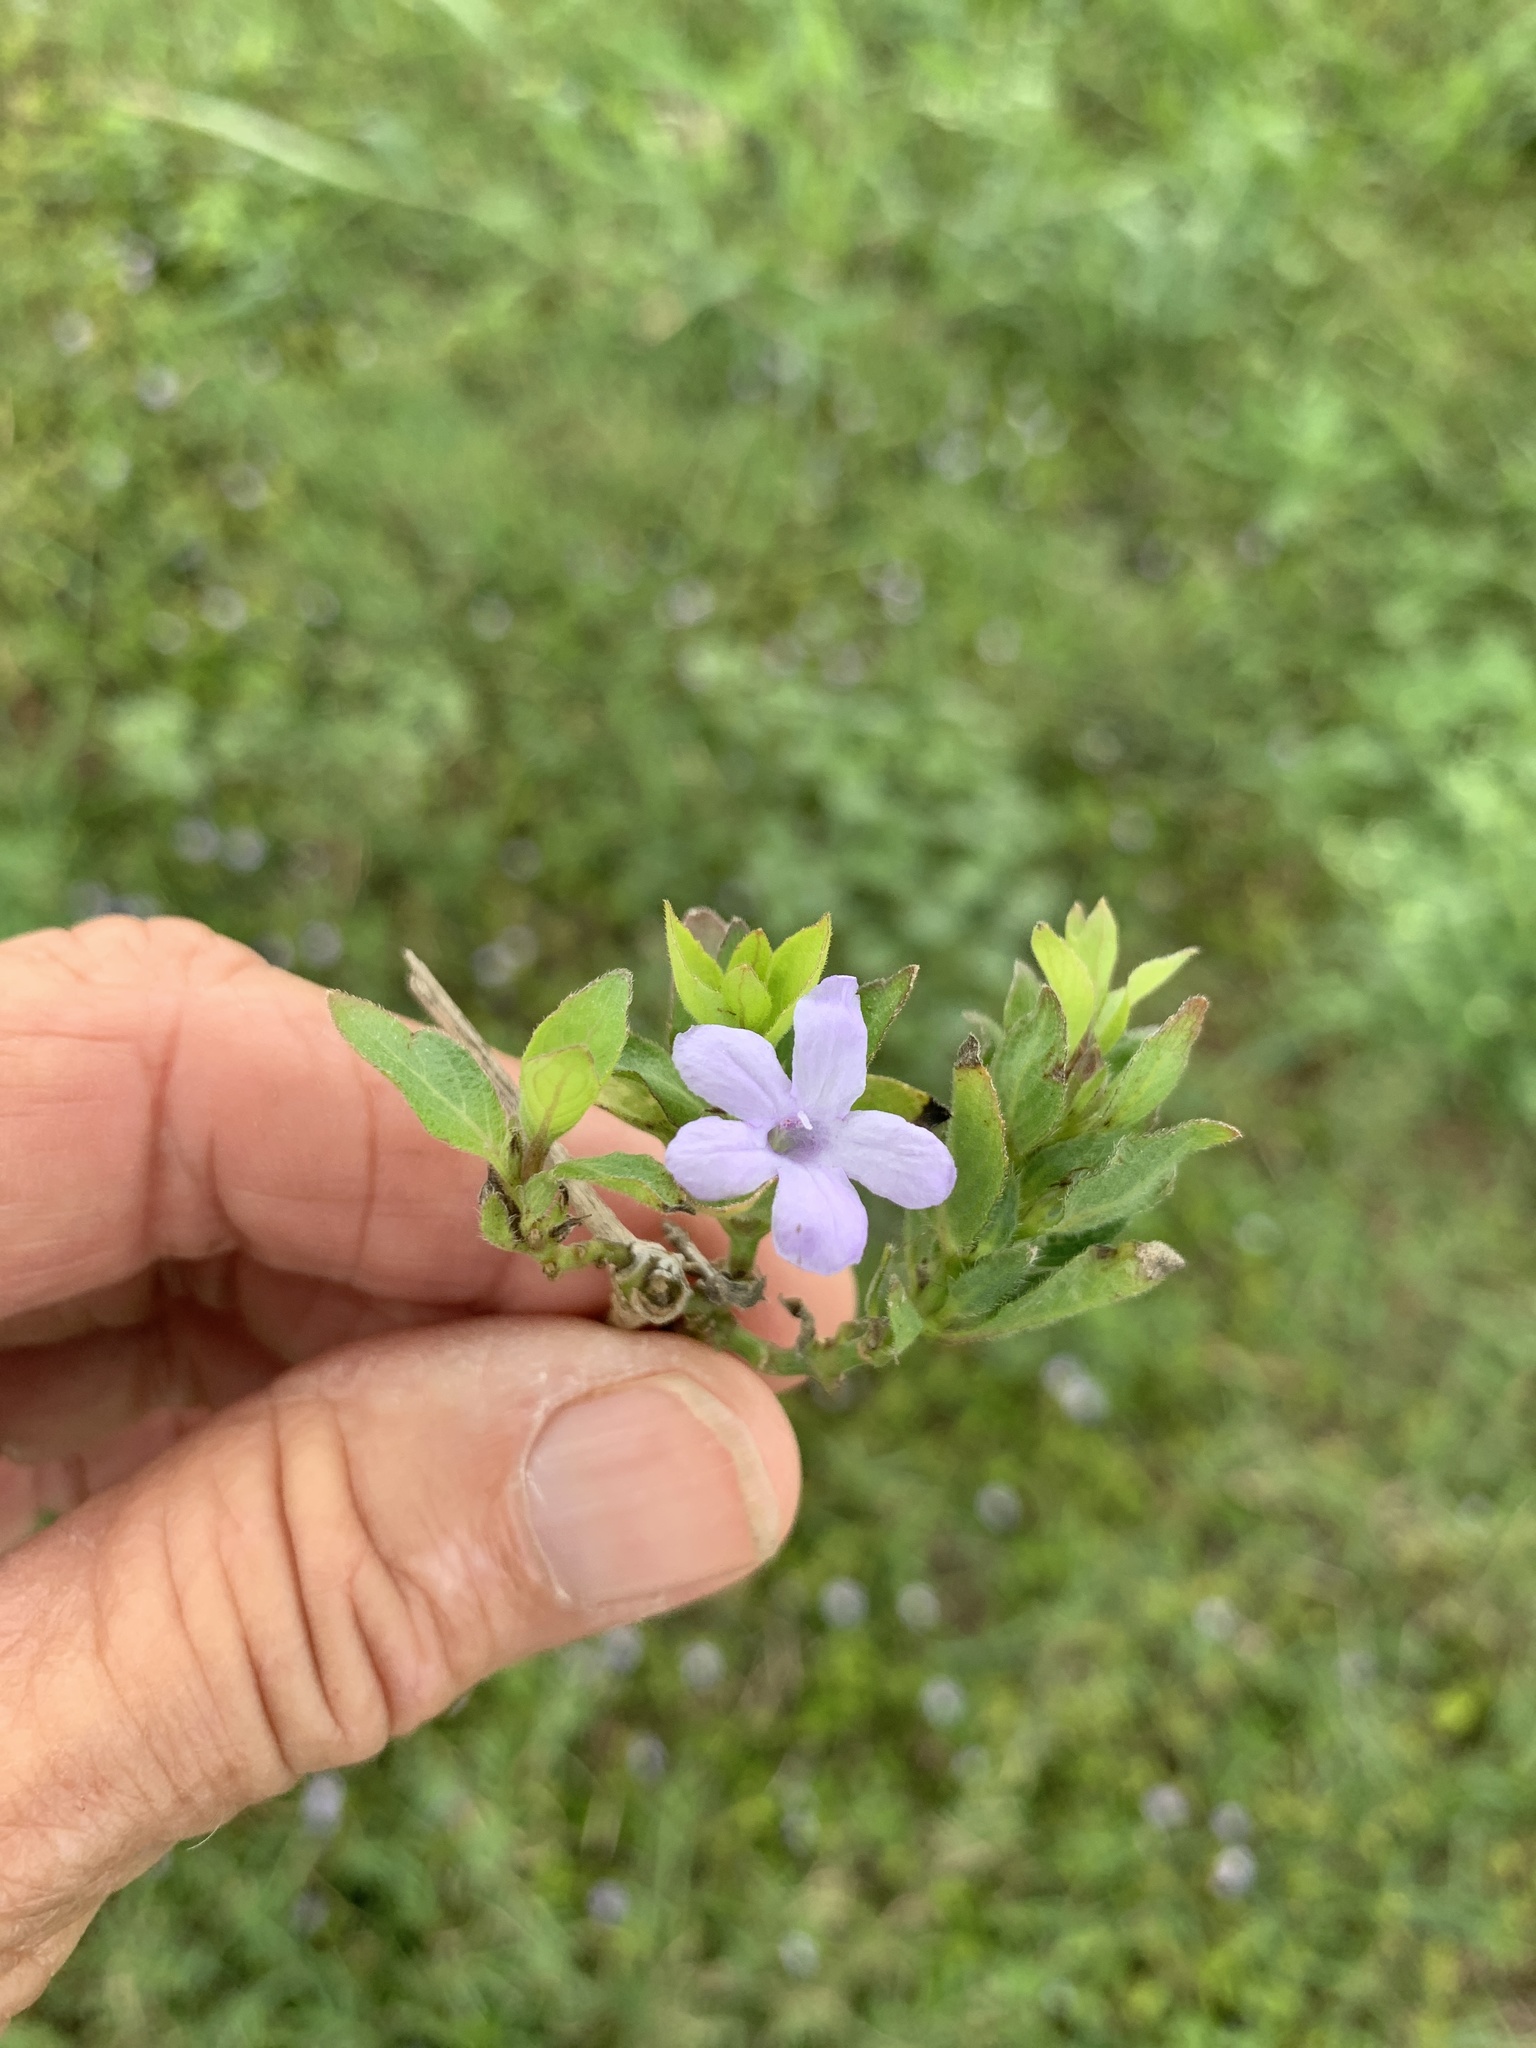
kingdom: Plantae
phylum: Tracheophyta
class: Magnoliopsida
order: Lamiales
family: Acanthaceae
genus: Ruellia
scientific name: Ruellia blechum
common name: Browne's blechum
